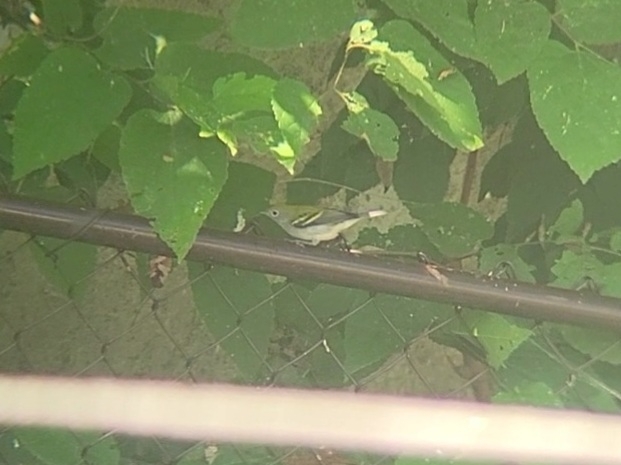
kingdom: Animalia
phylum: Chordata
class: Aves
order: Passeriformes
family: Parulidae
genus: Setophaga
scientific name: Setophaga pensylvanica
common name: Chestnut-sided warbler
